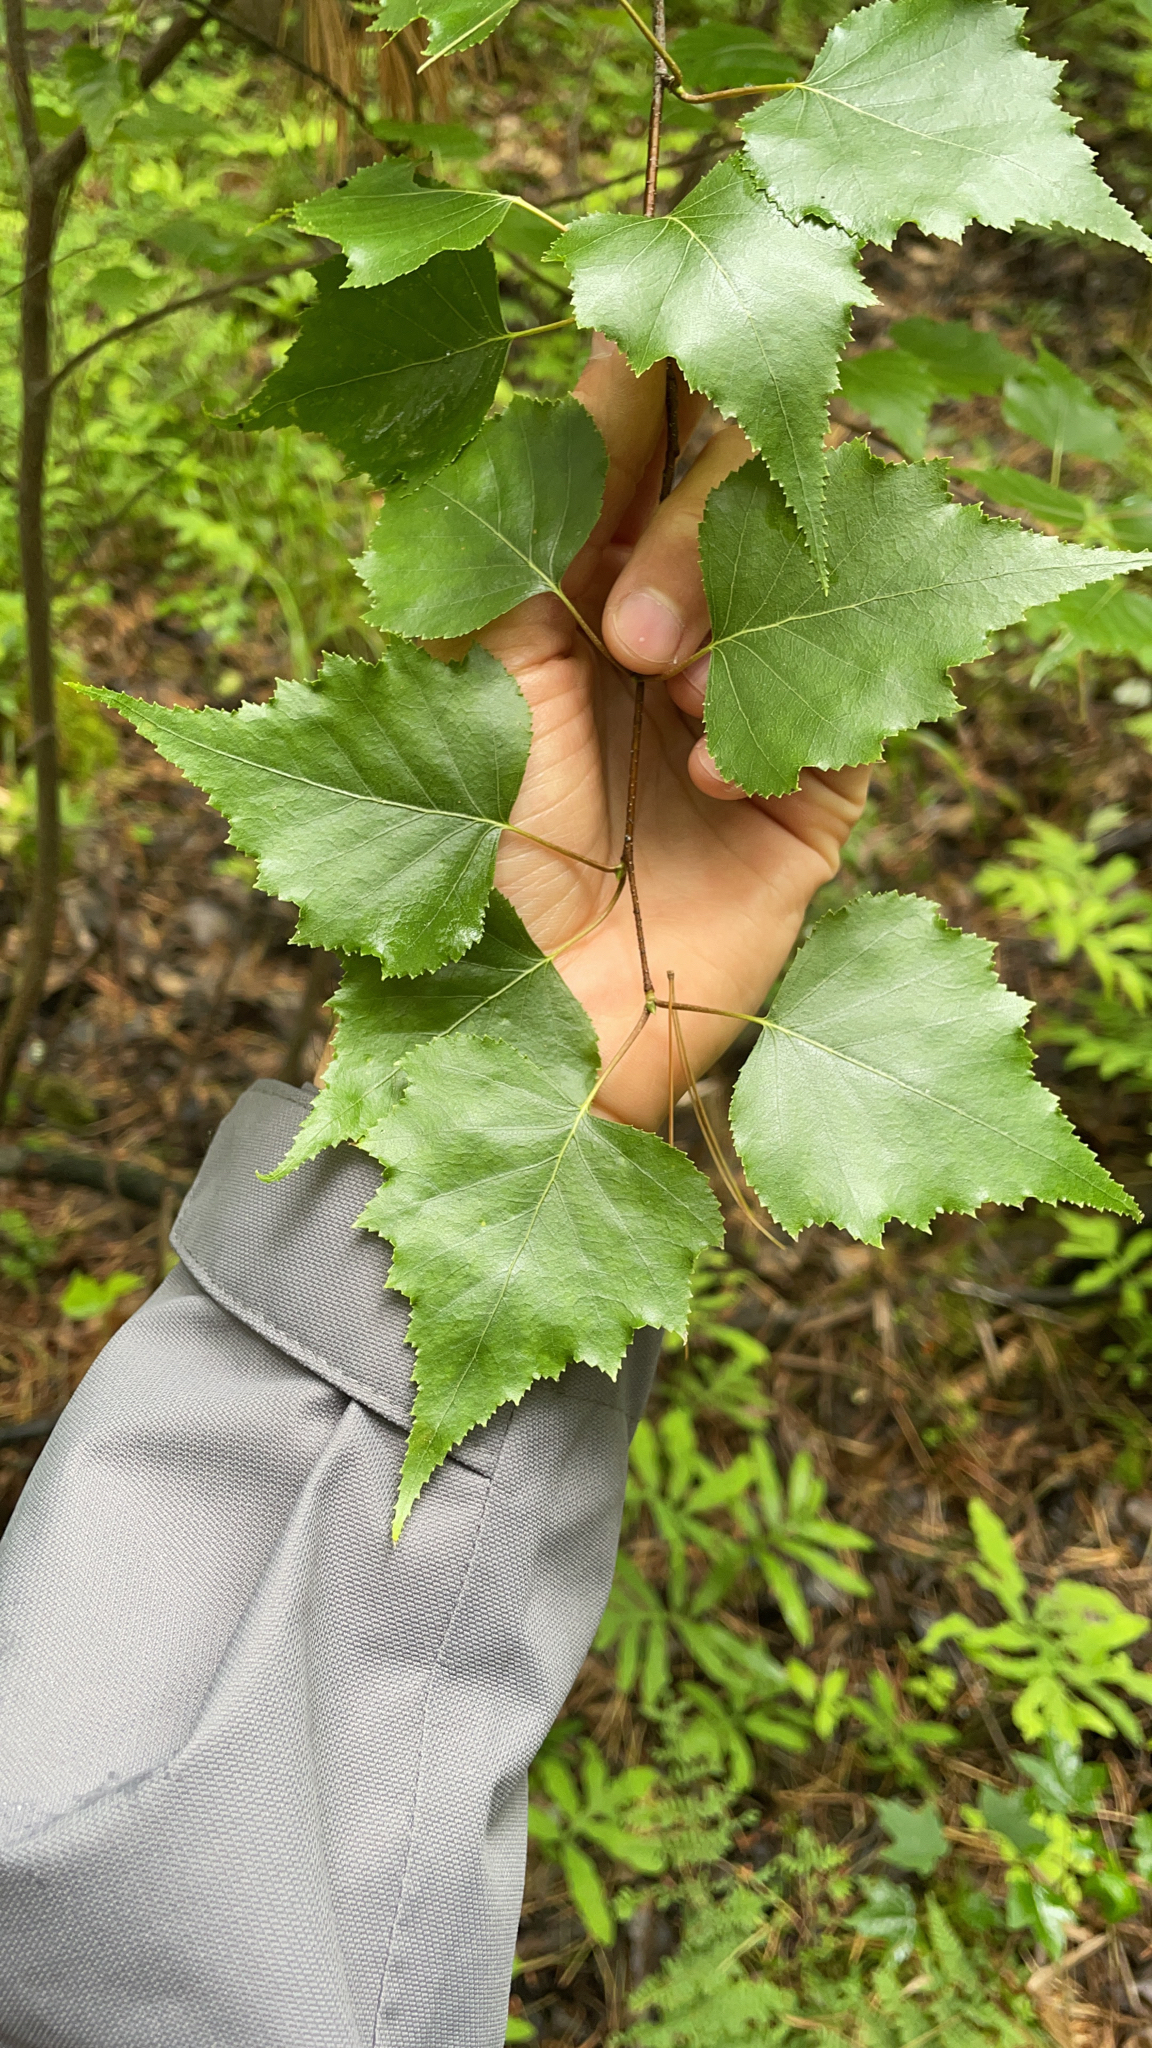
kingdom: Plantae
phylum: Tracheophyta
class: Magnoliopsida
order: Fagales
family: Betulaceae
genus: Betula
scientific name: Betula populifolia
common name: Fire birch
